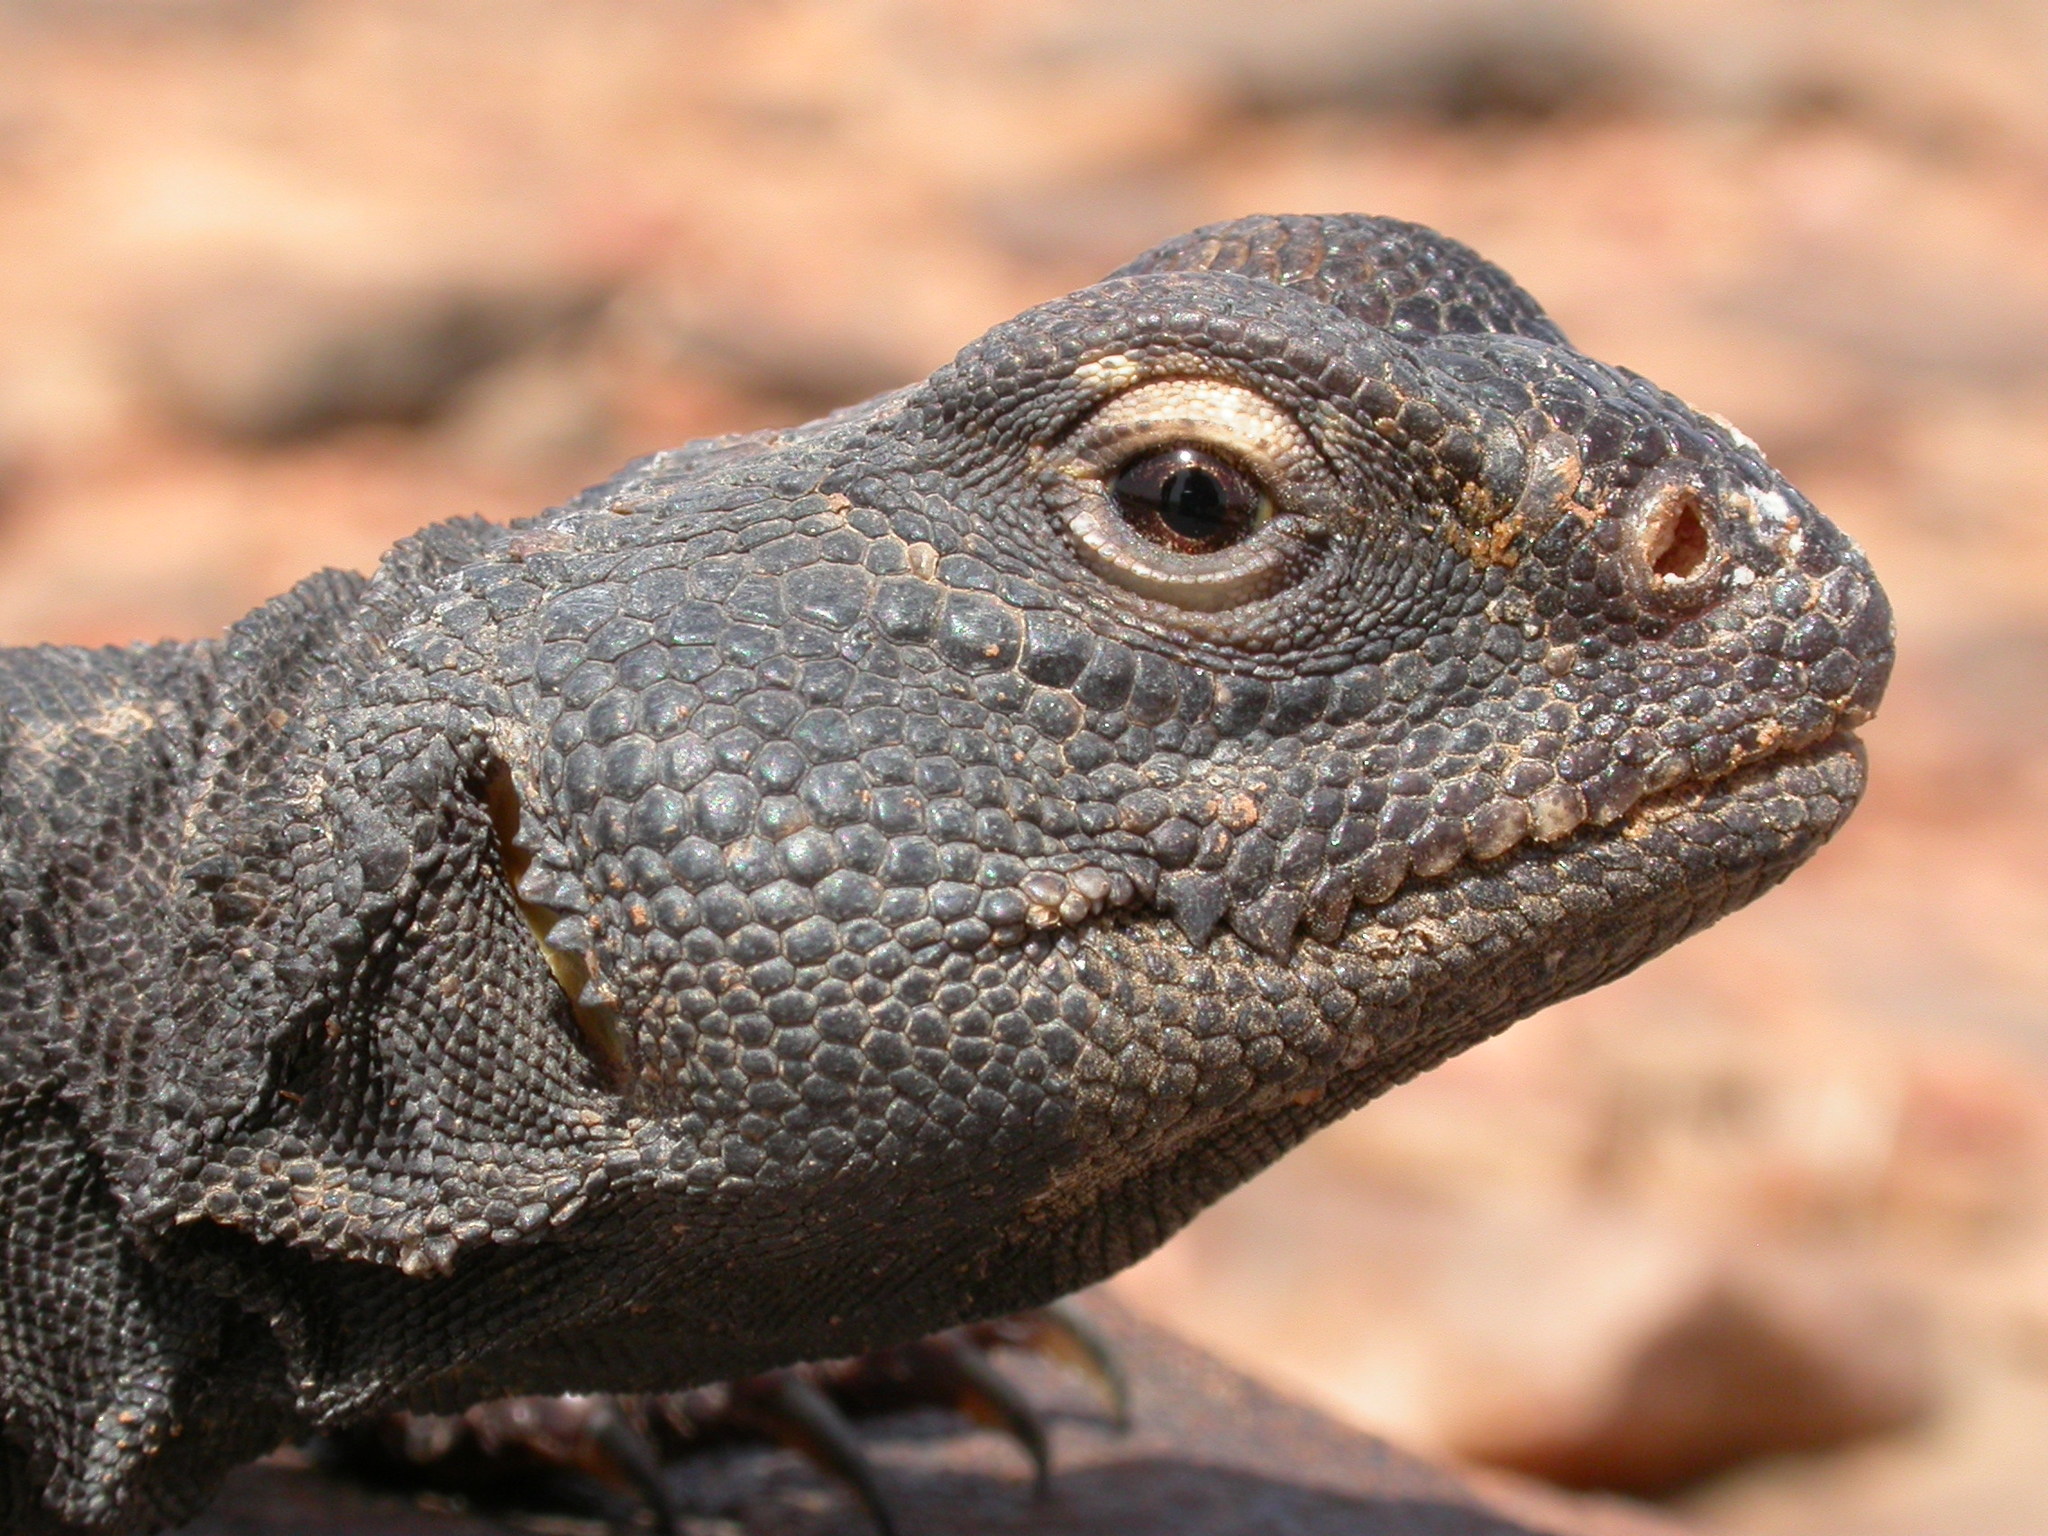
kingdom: Animalia
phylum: Chordata
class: Squamata
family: Agamidae
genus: Uromastyx
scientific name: Uromastyx dispar
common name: Sudan mastigure
